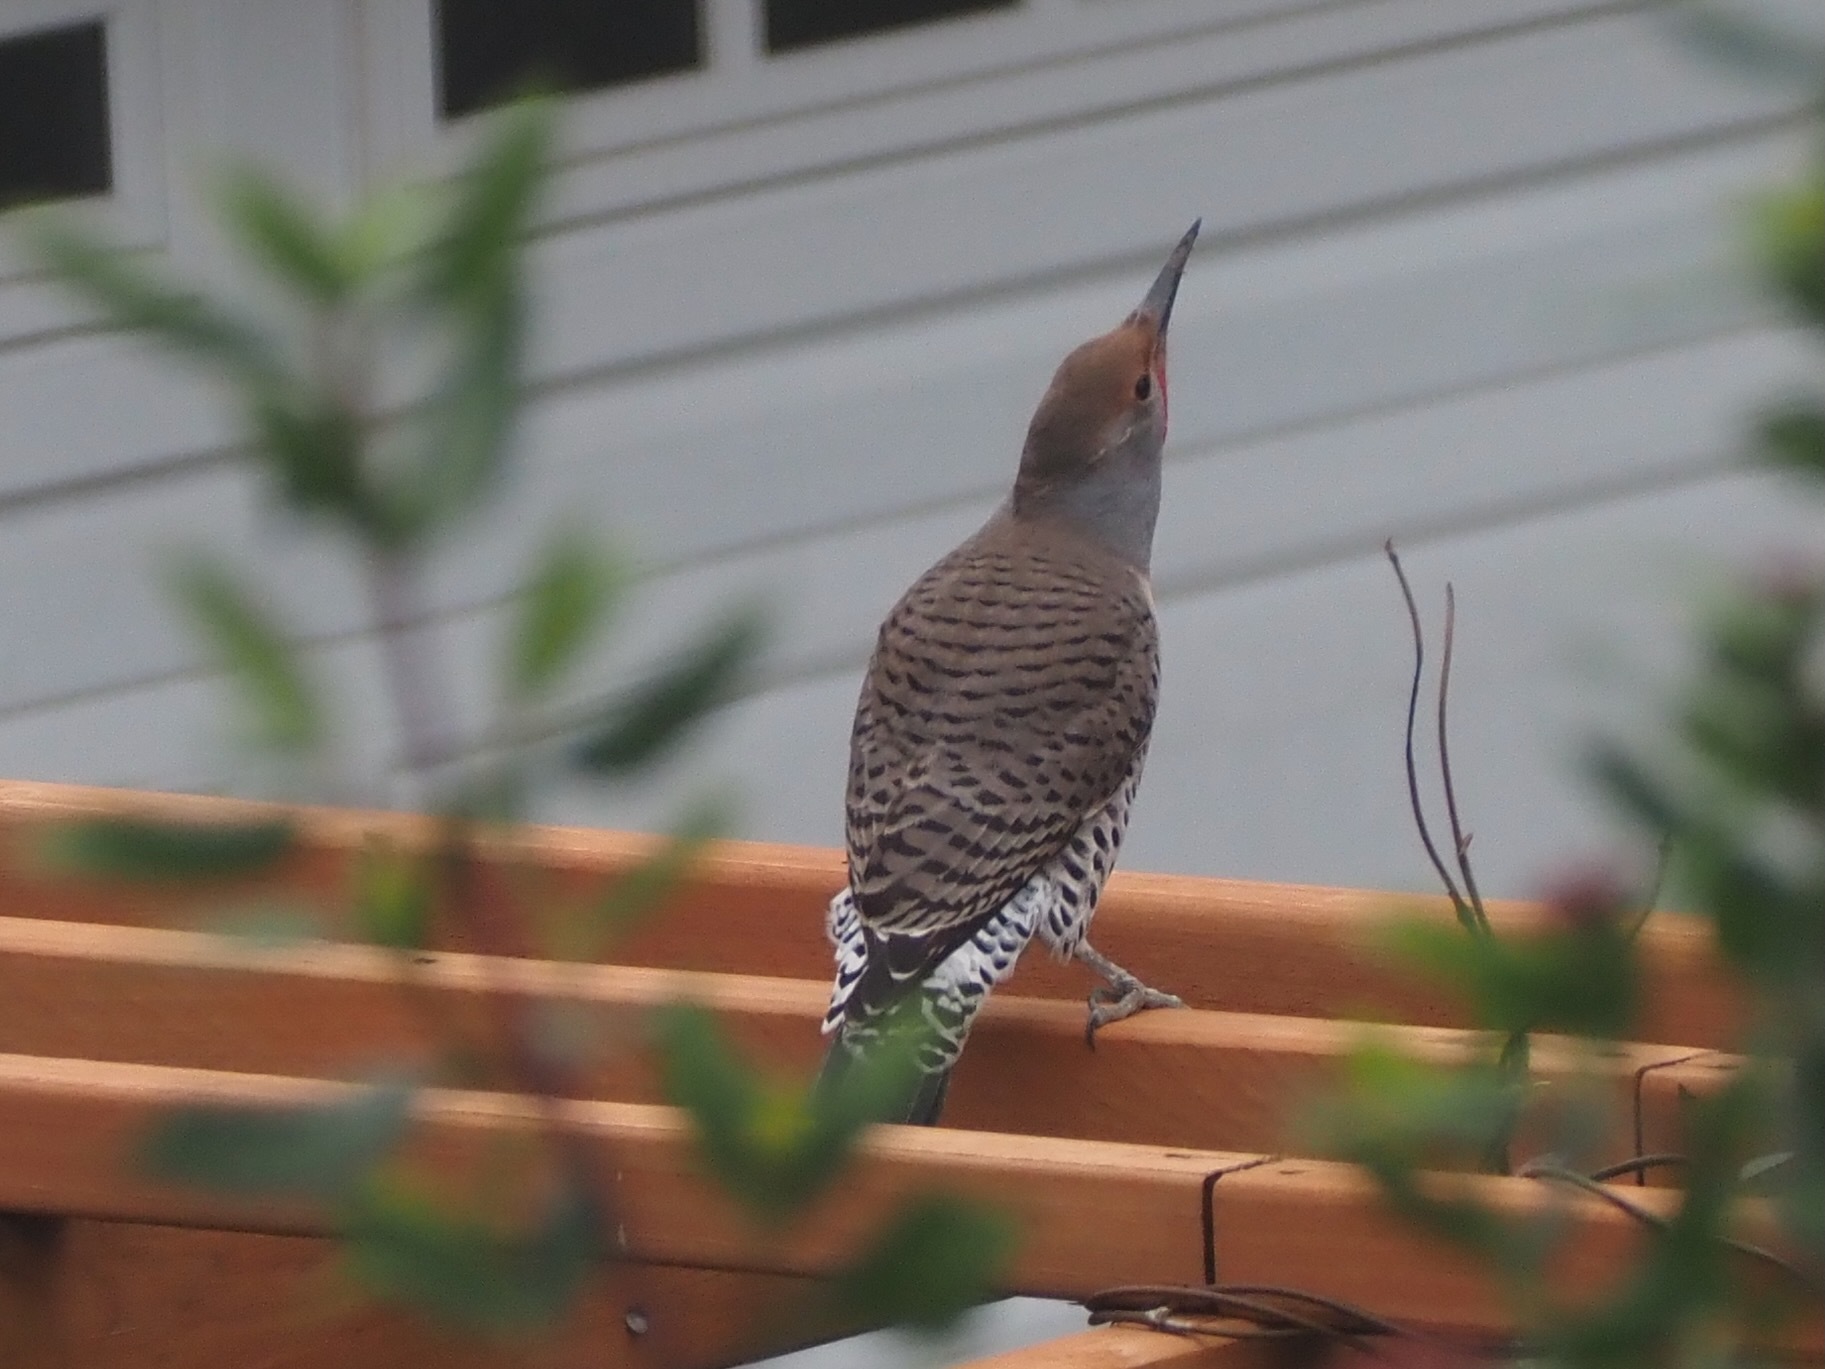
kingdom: Animalia
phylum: Chordata
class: Aves
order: Piciformes
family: Picidae
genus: Colaptes
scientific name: Colaptes auratus
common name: Northern flicker
